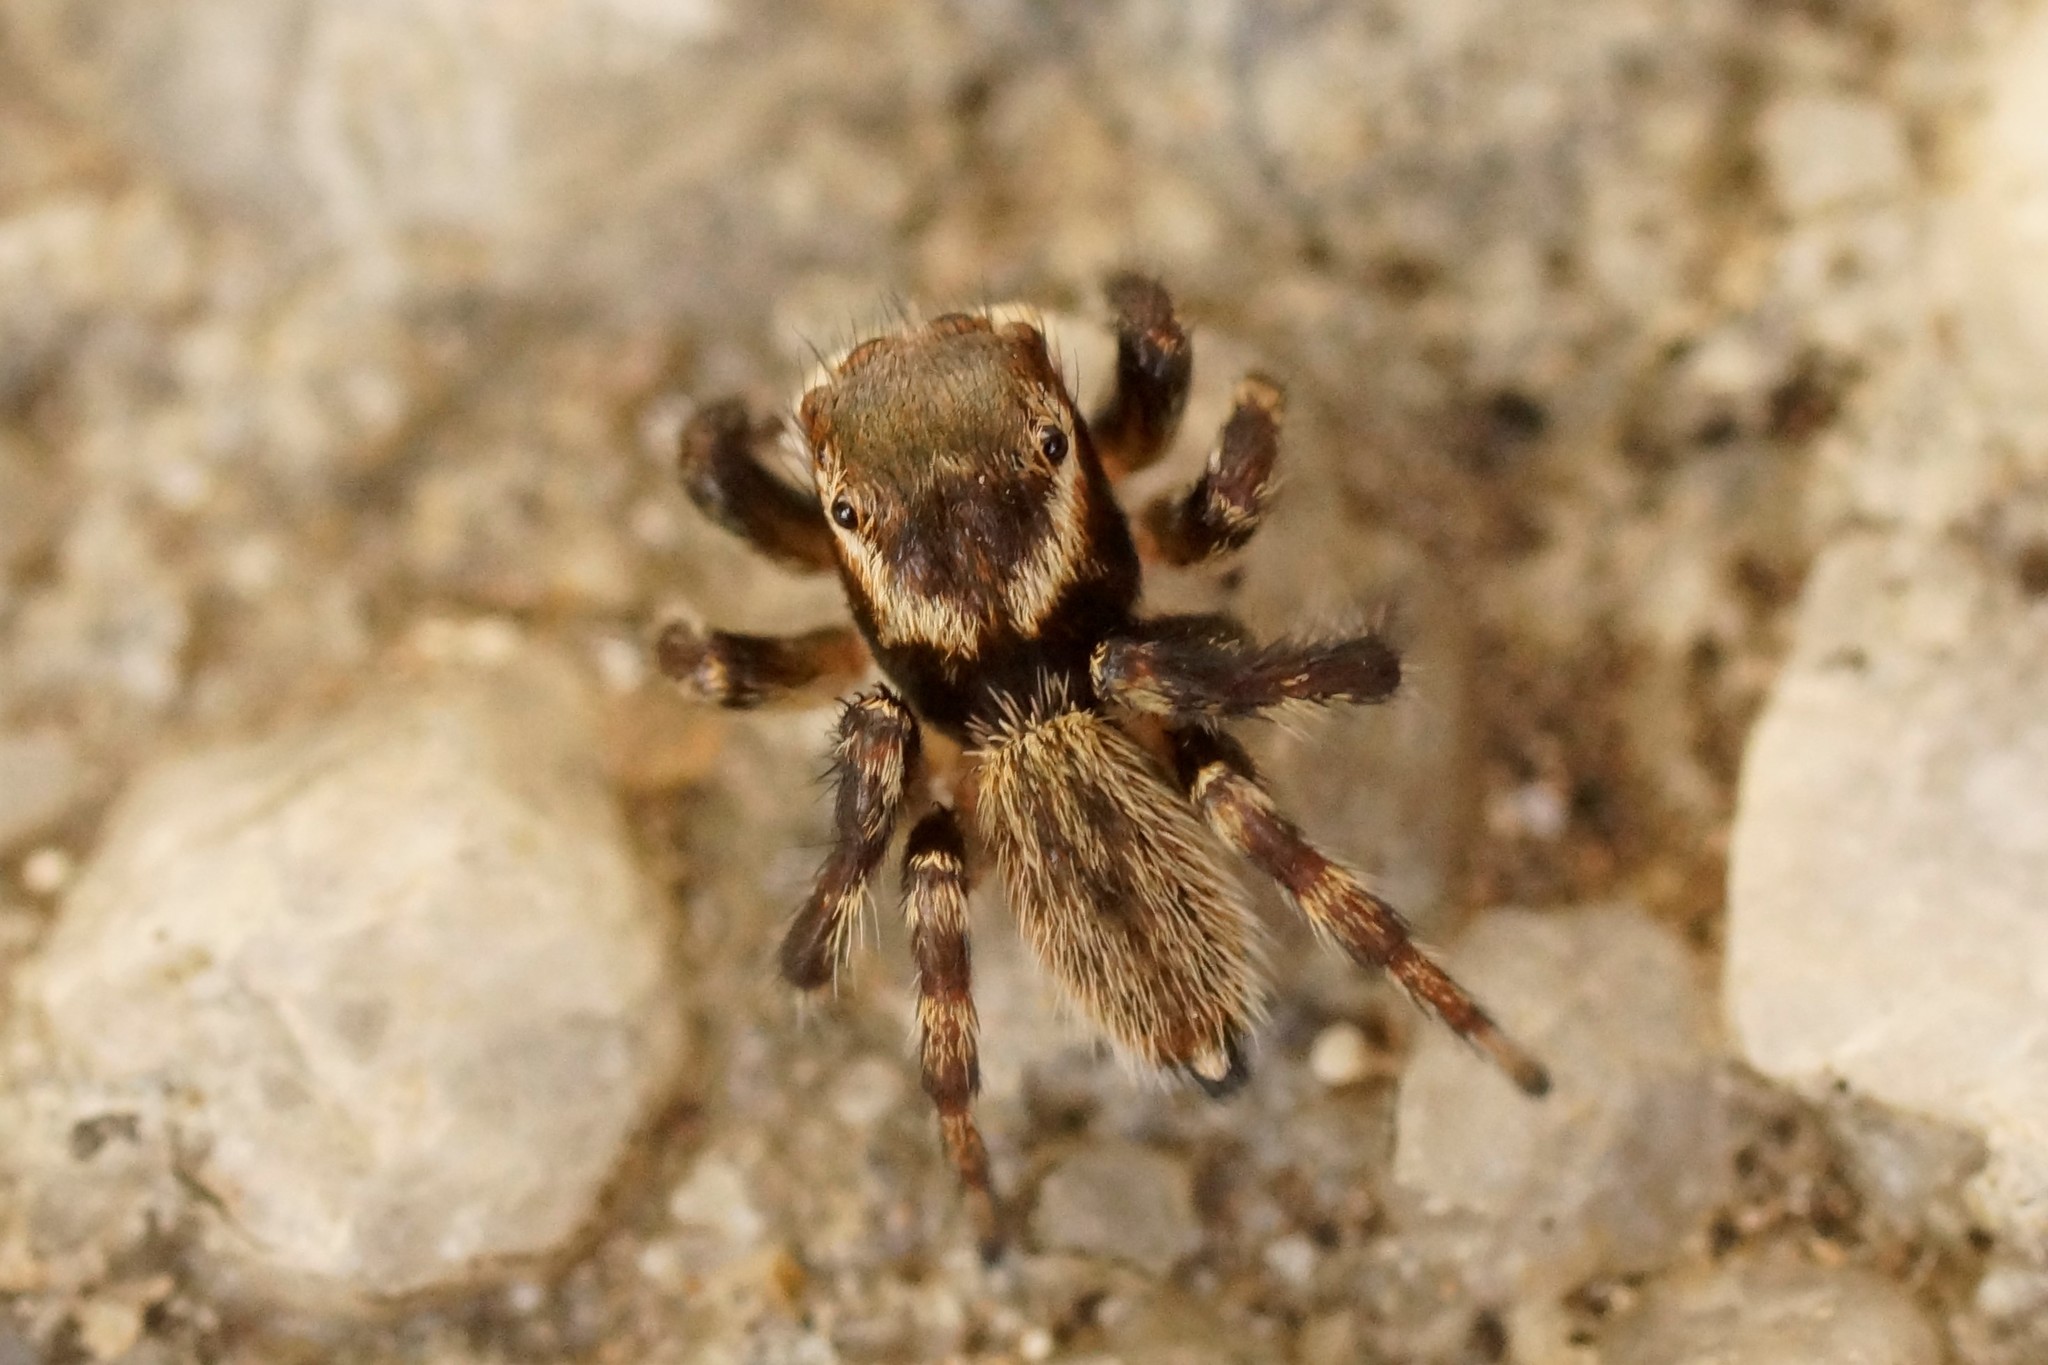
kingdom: Animalia
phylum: Arthropoda
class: Arachnida
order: Araneae
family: Salticidae
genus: Maratus
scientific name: Maratus griseus
